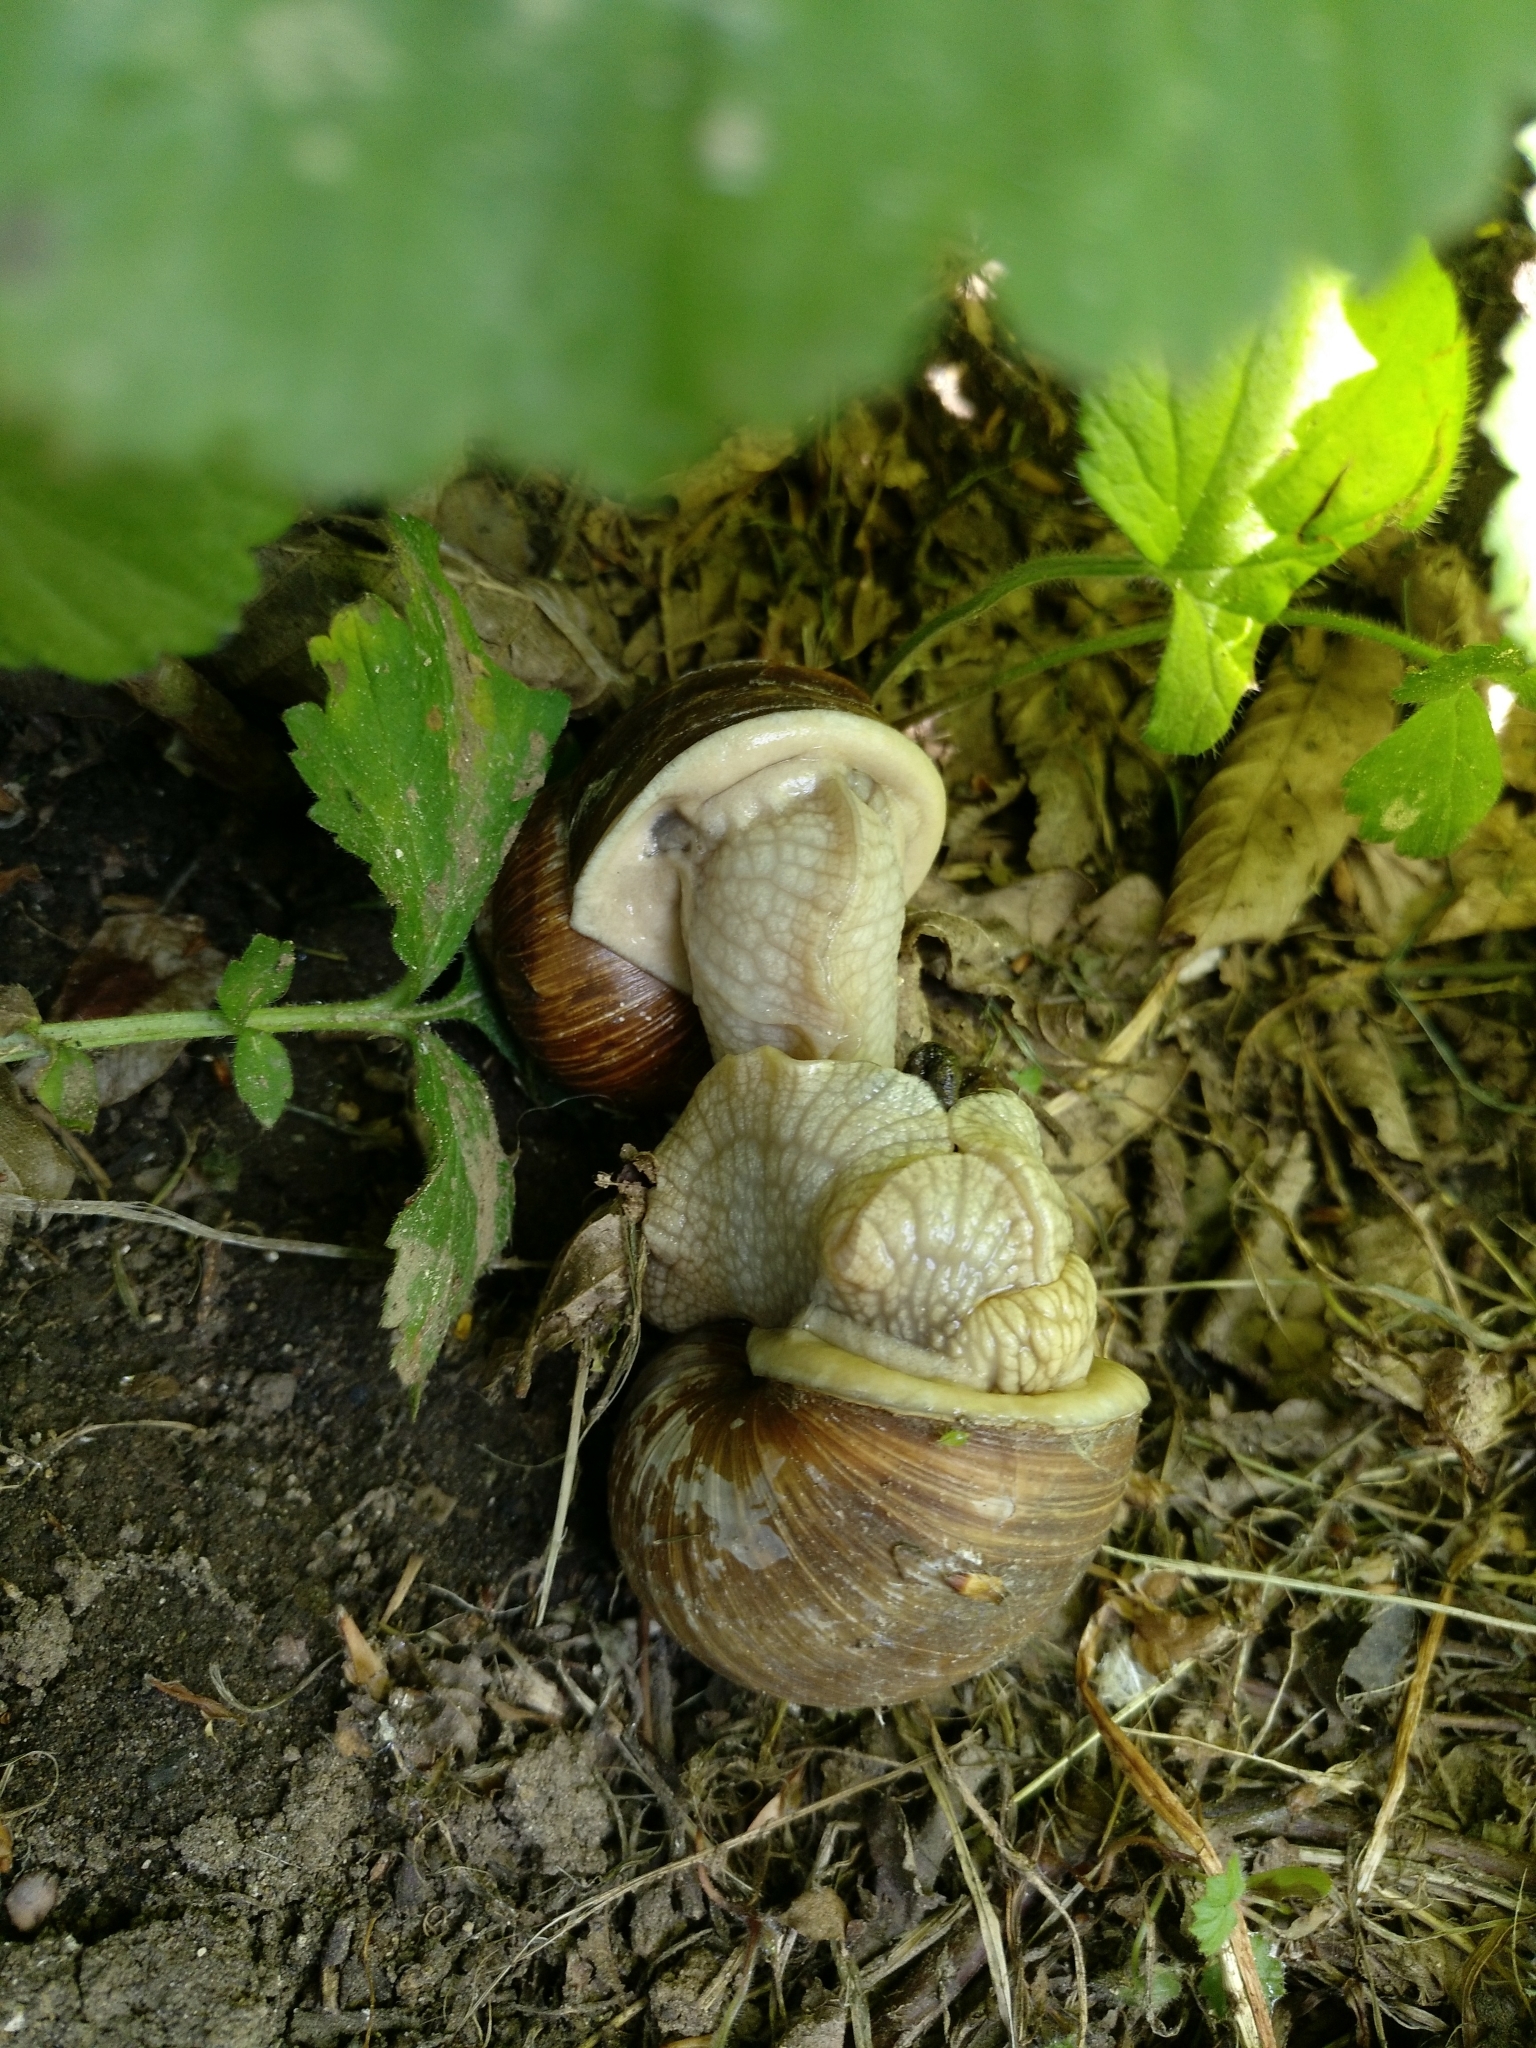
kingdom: Animalia
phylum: Mollusca
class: Gastropoda
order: Stylommatophora
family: Helicidae
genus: Helix
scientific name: Helix pomatia
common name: Roman snail
